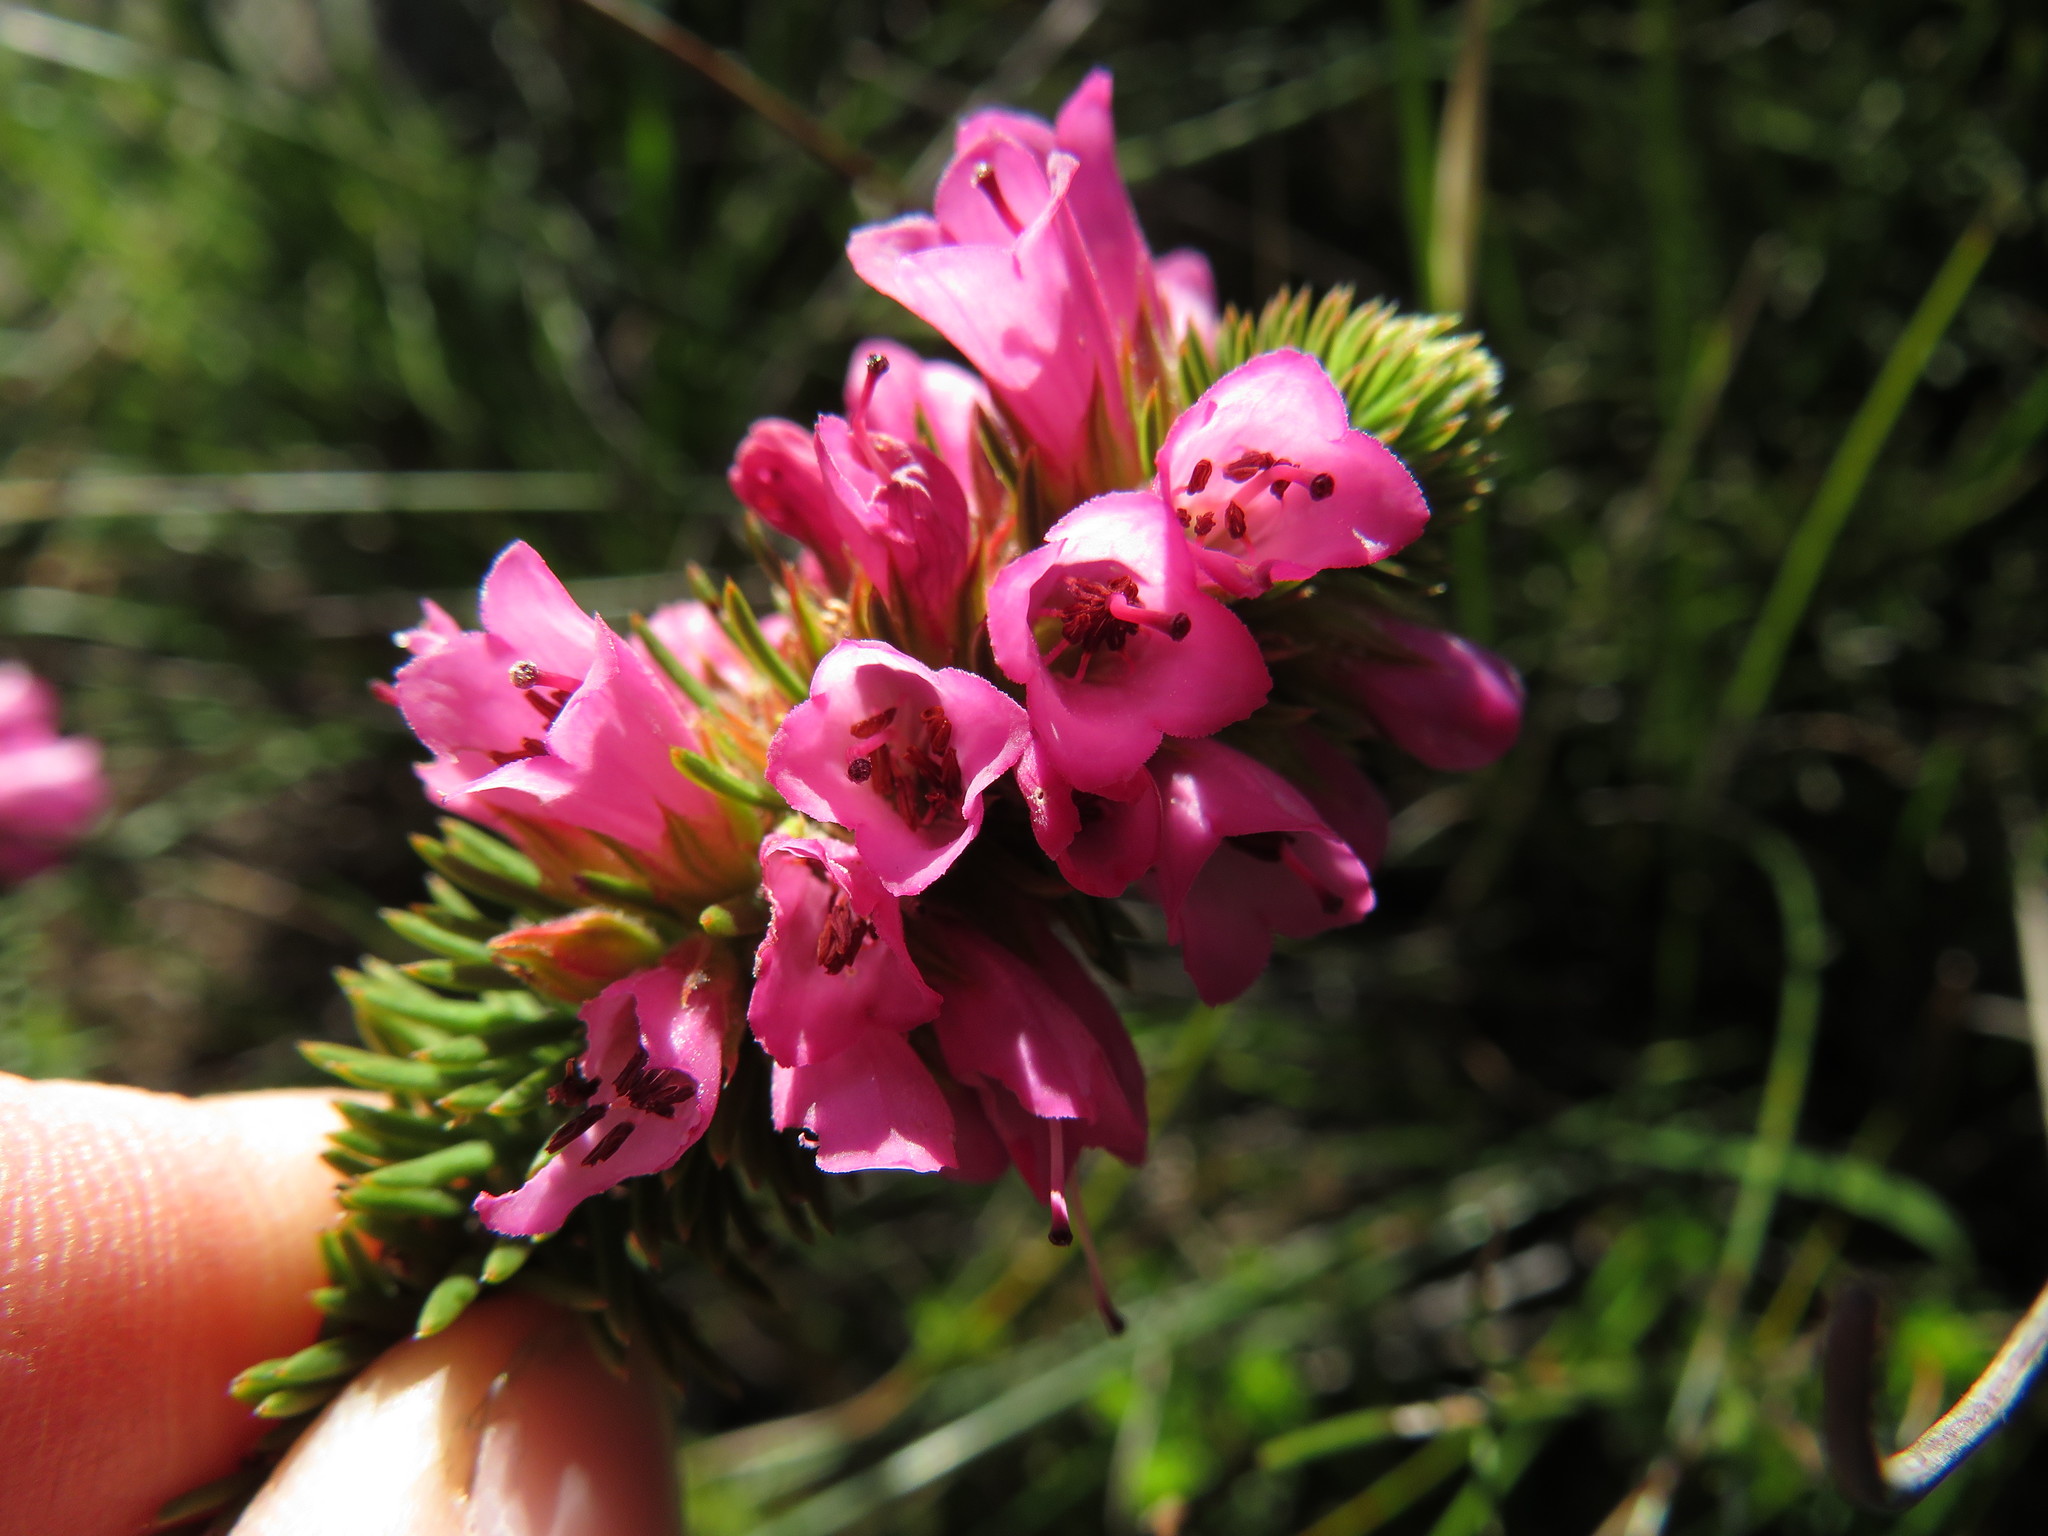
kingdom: Plantae
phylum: Tracheophyta
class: Magnoliopsida
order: Ericales
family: Ericaceae
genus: Erica
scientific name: Erica abietina
